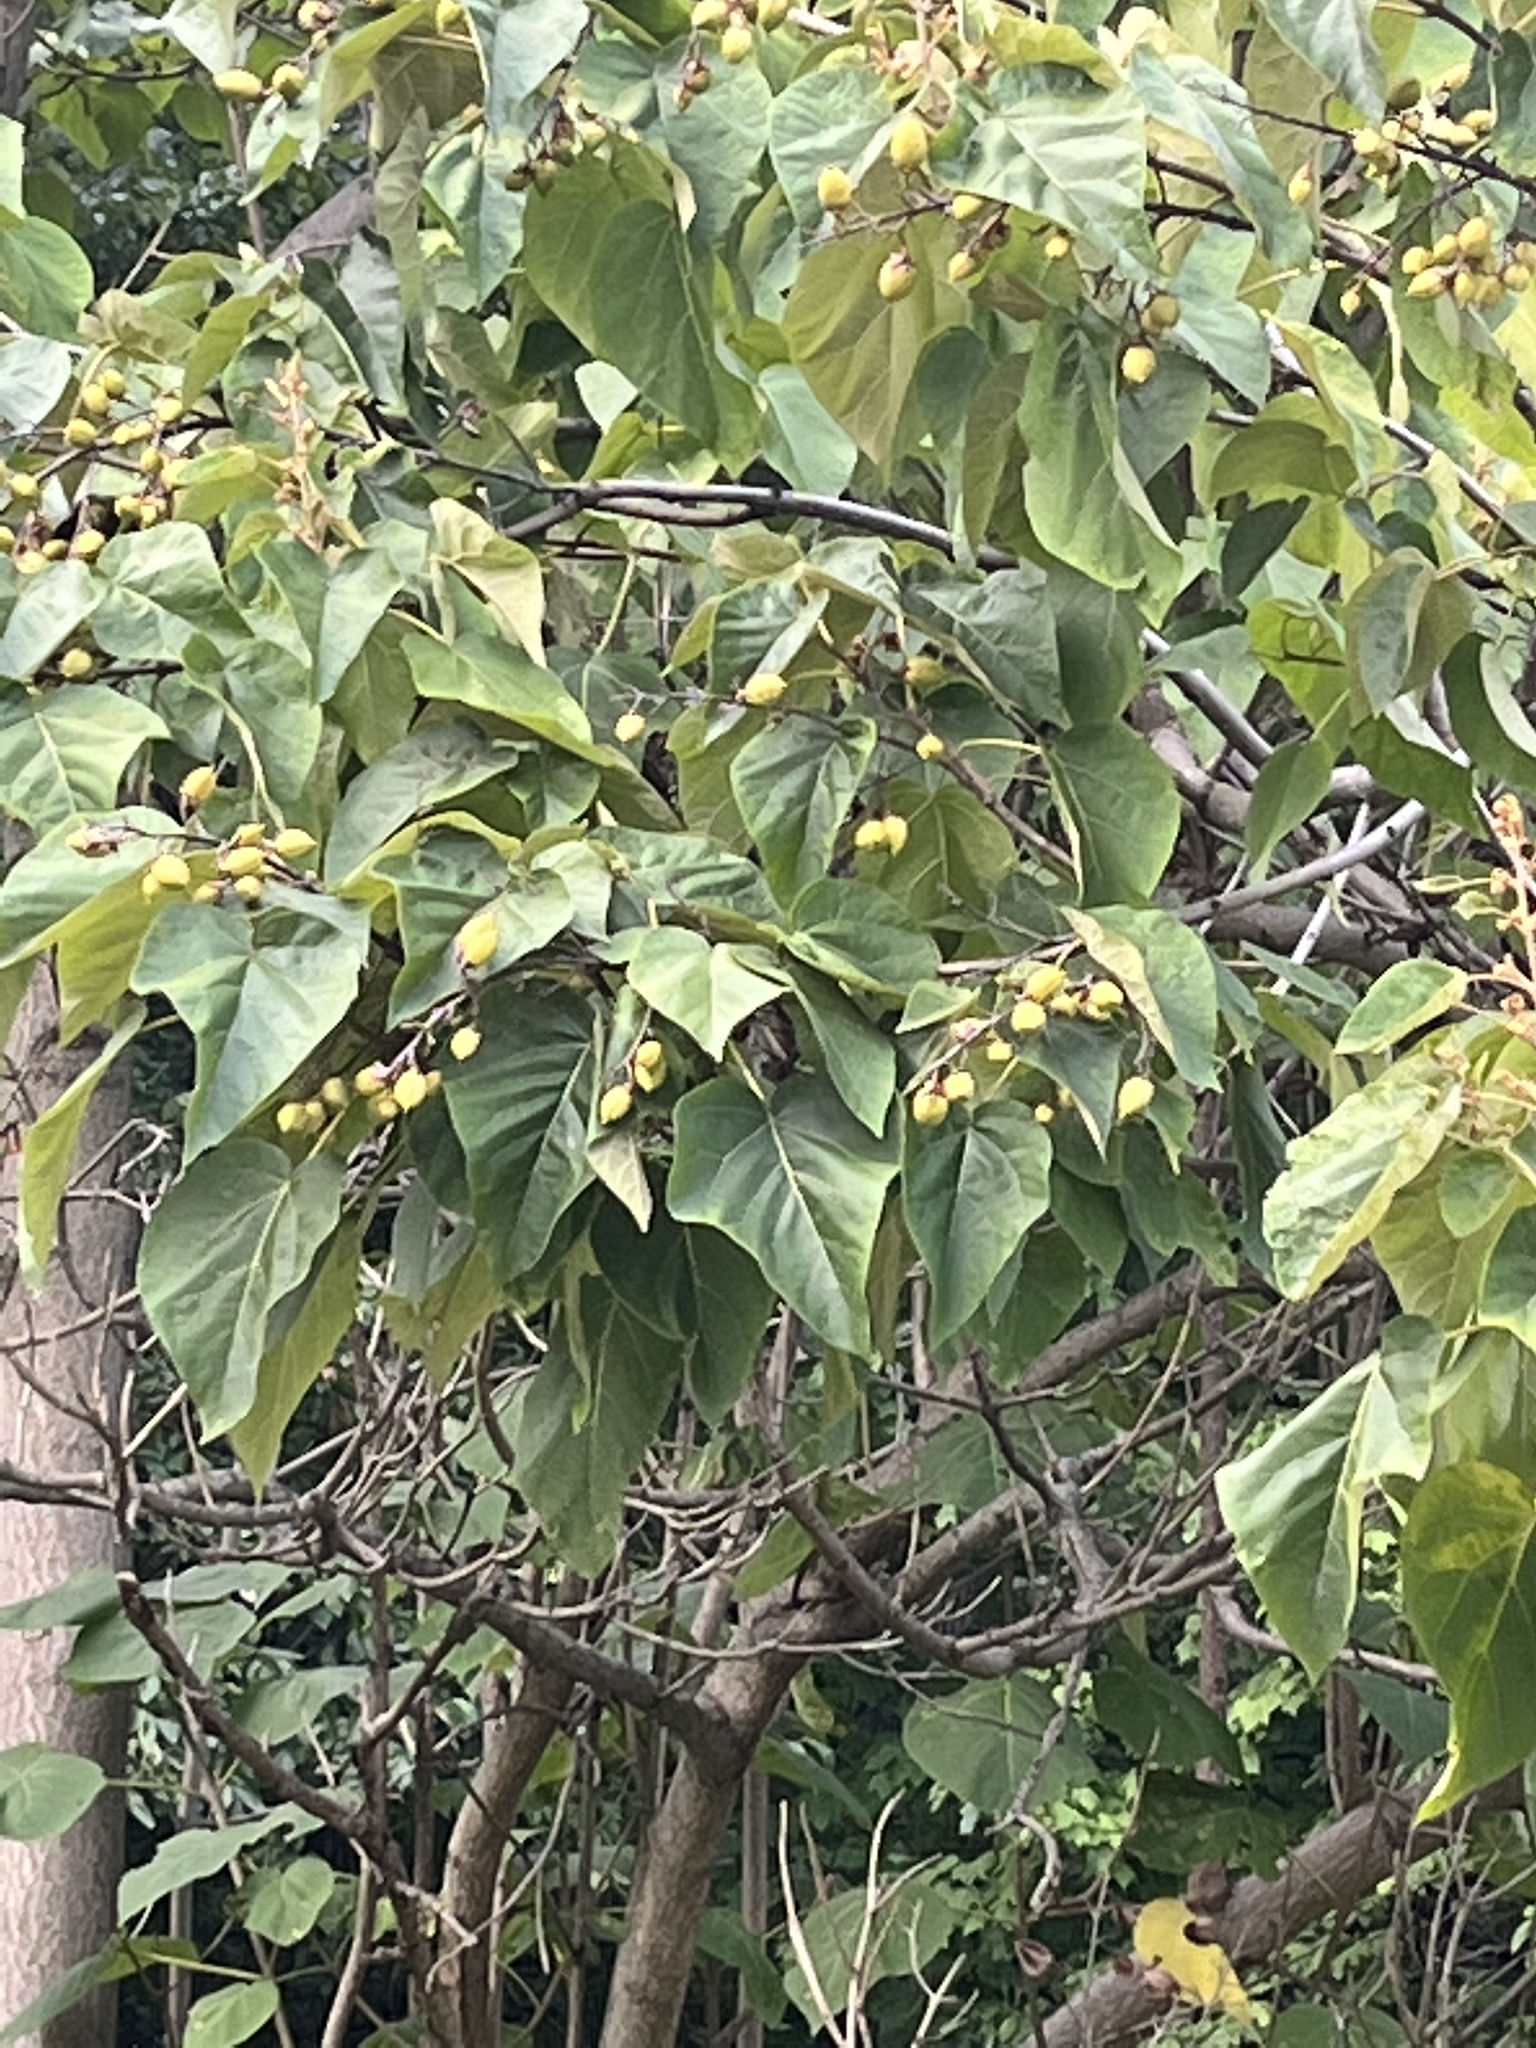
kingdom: Plantae
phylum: Tracheophyta
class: Magnoliopsida
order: Lamiales
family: Paulowniaceae
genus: Paulownia
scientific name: Paulownia tomentosa
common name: Foxglove-tree
